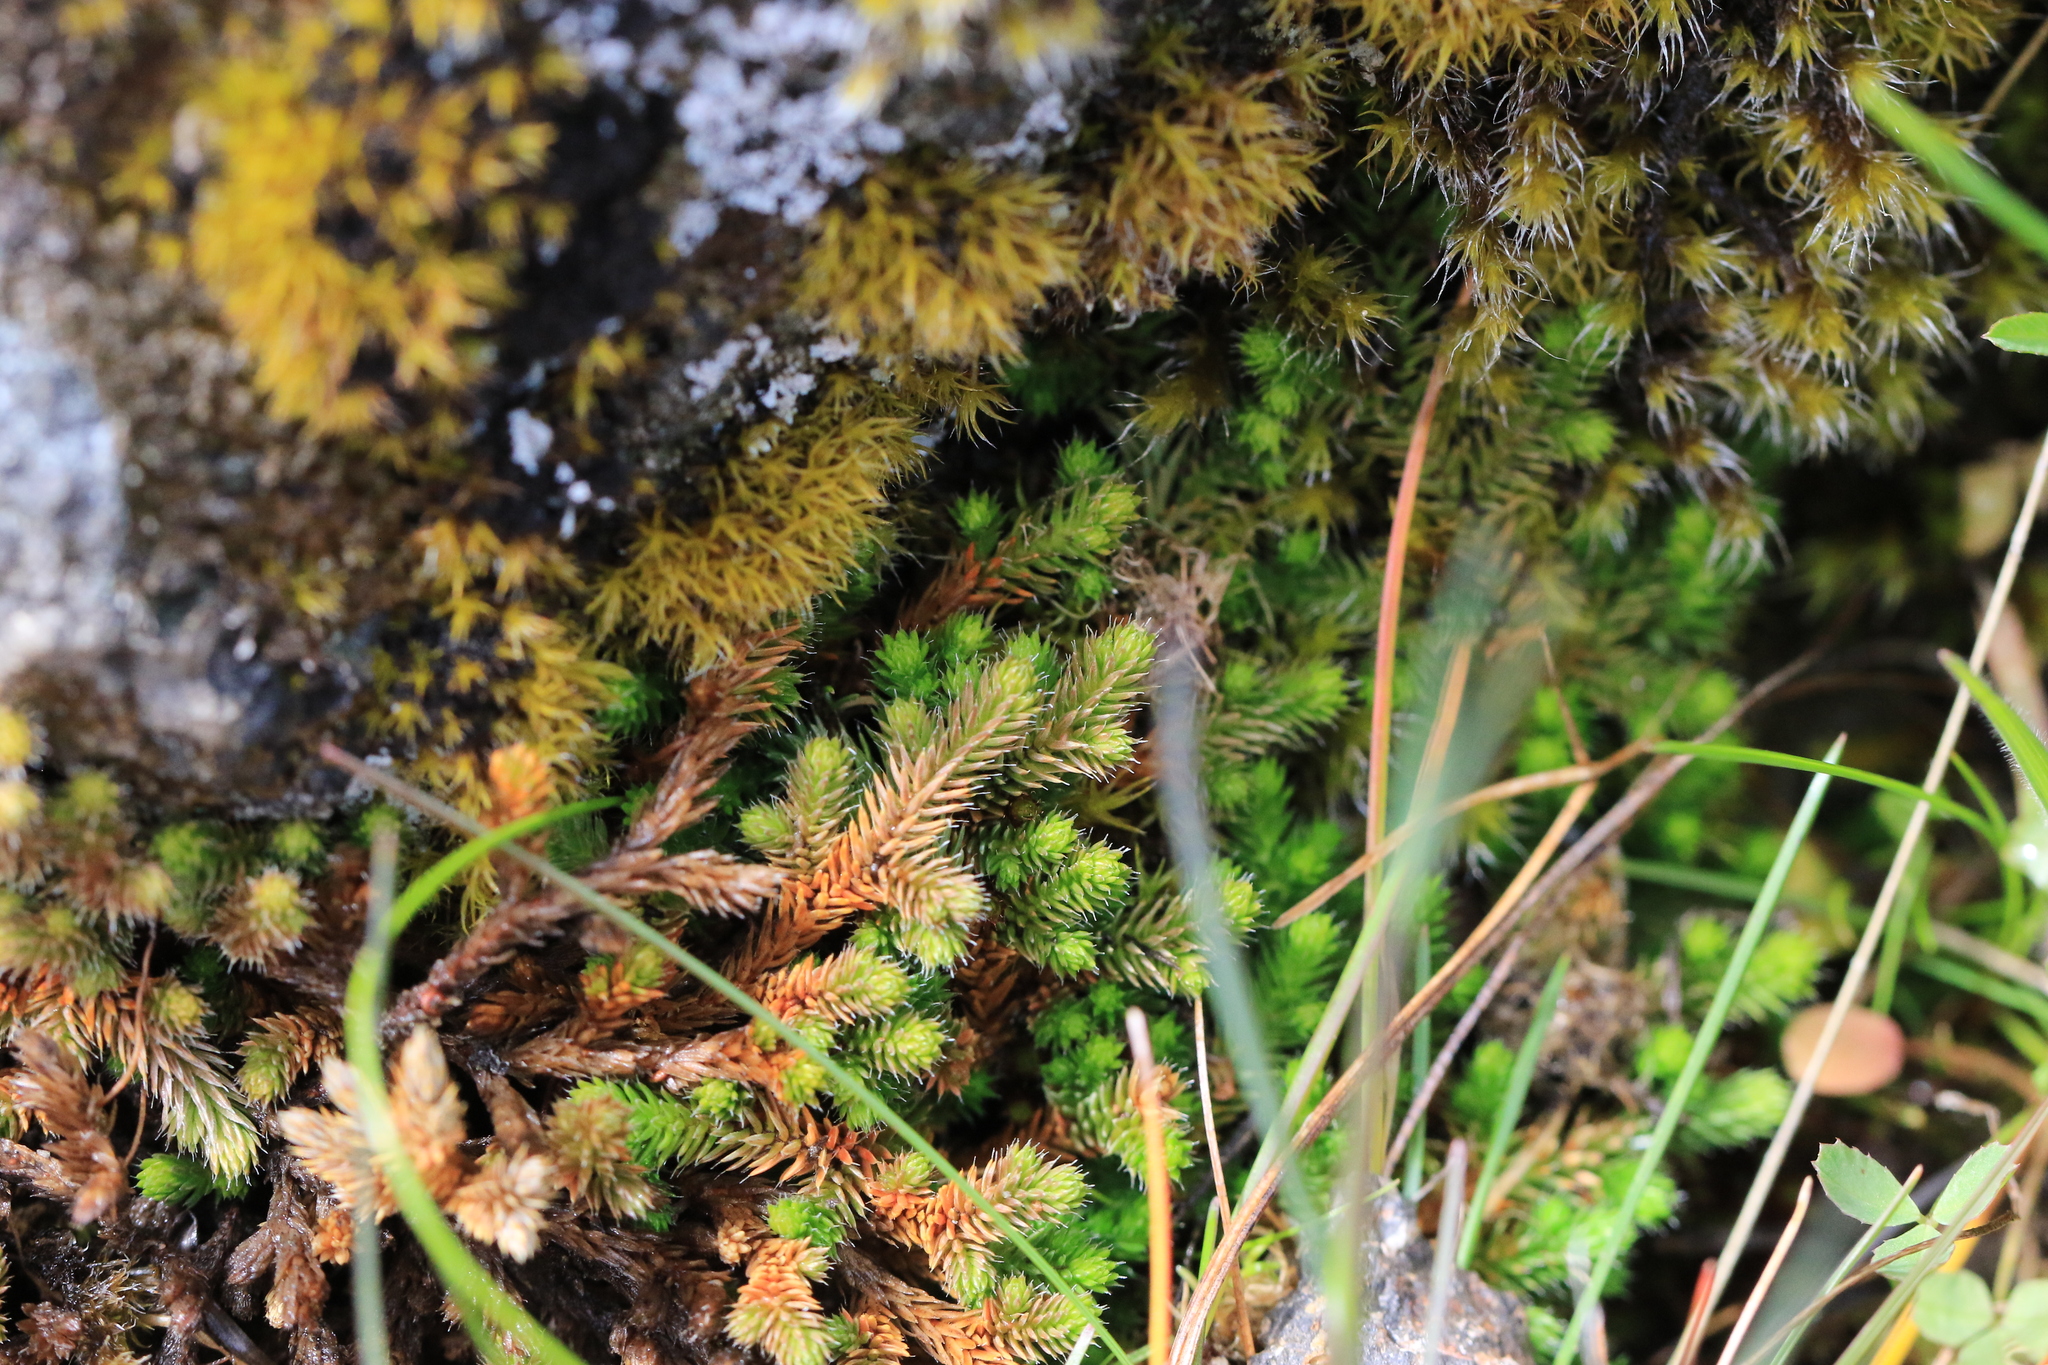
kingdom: Plantae
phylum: Tracheophyta
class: Lycopodiopsida
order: Selaginellales
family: Selaginellaceae
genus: Selaginella
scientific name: Selaginella wallacei
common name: Wallace's selaginella
